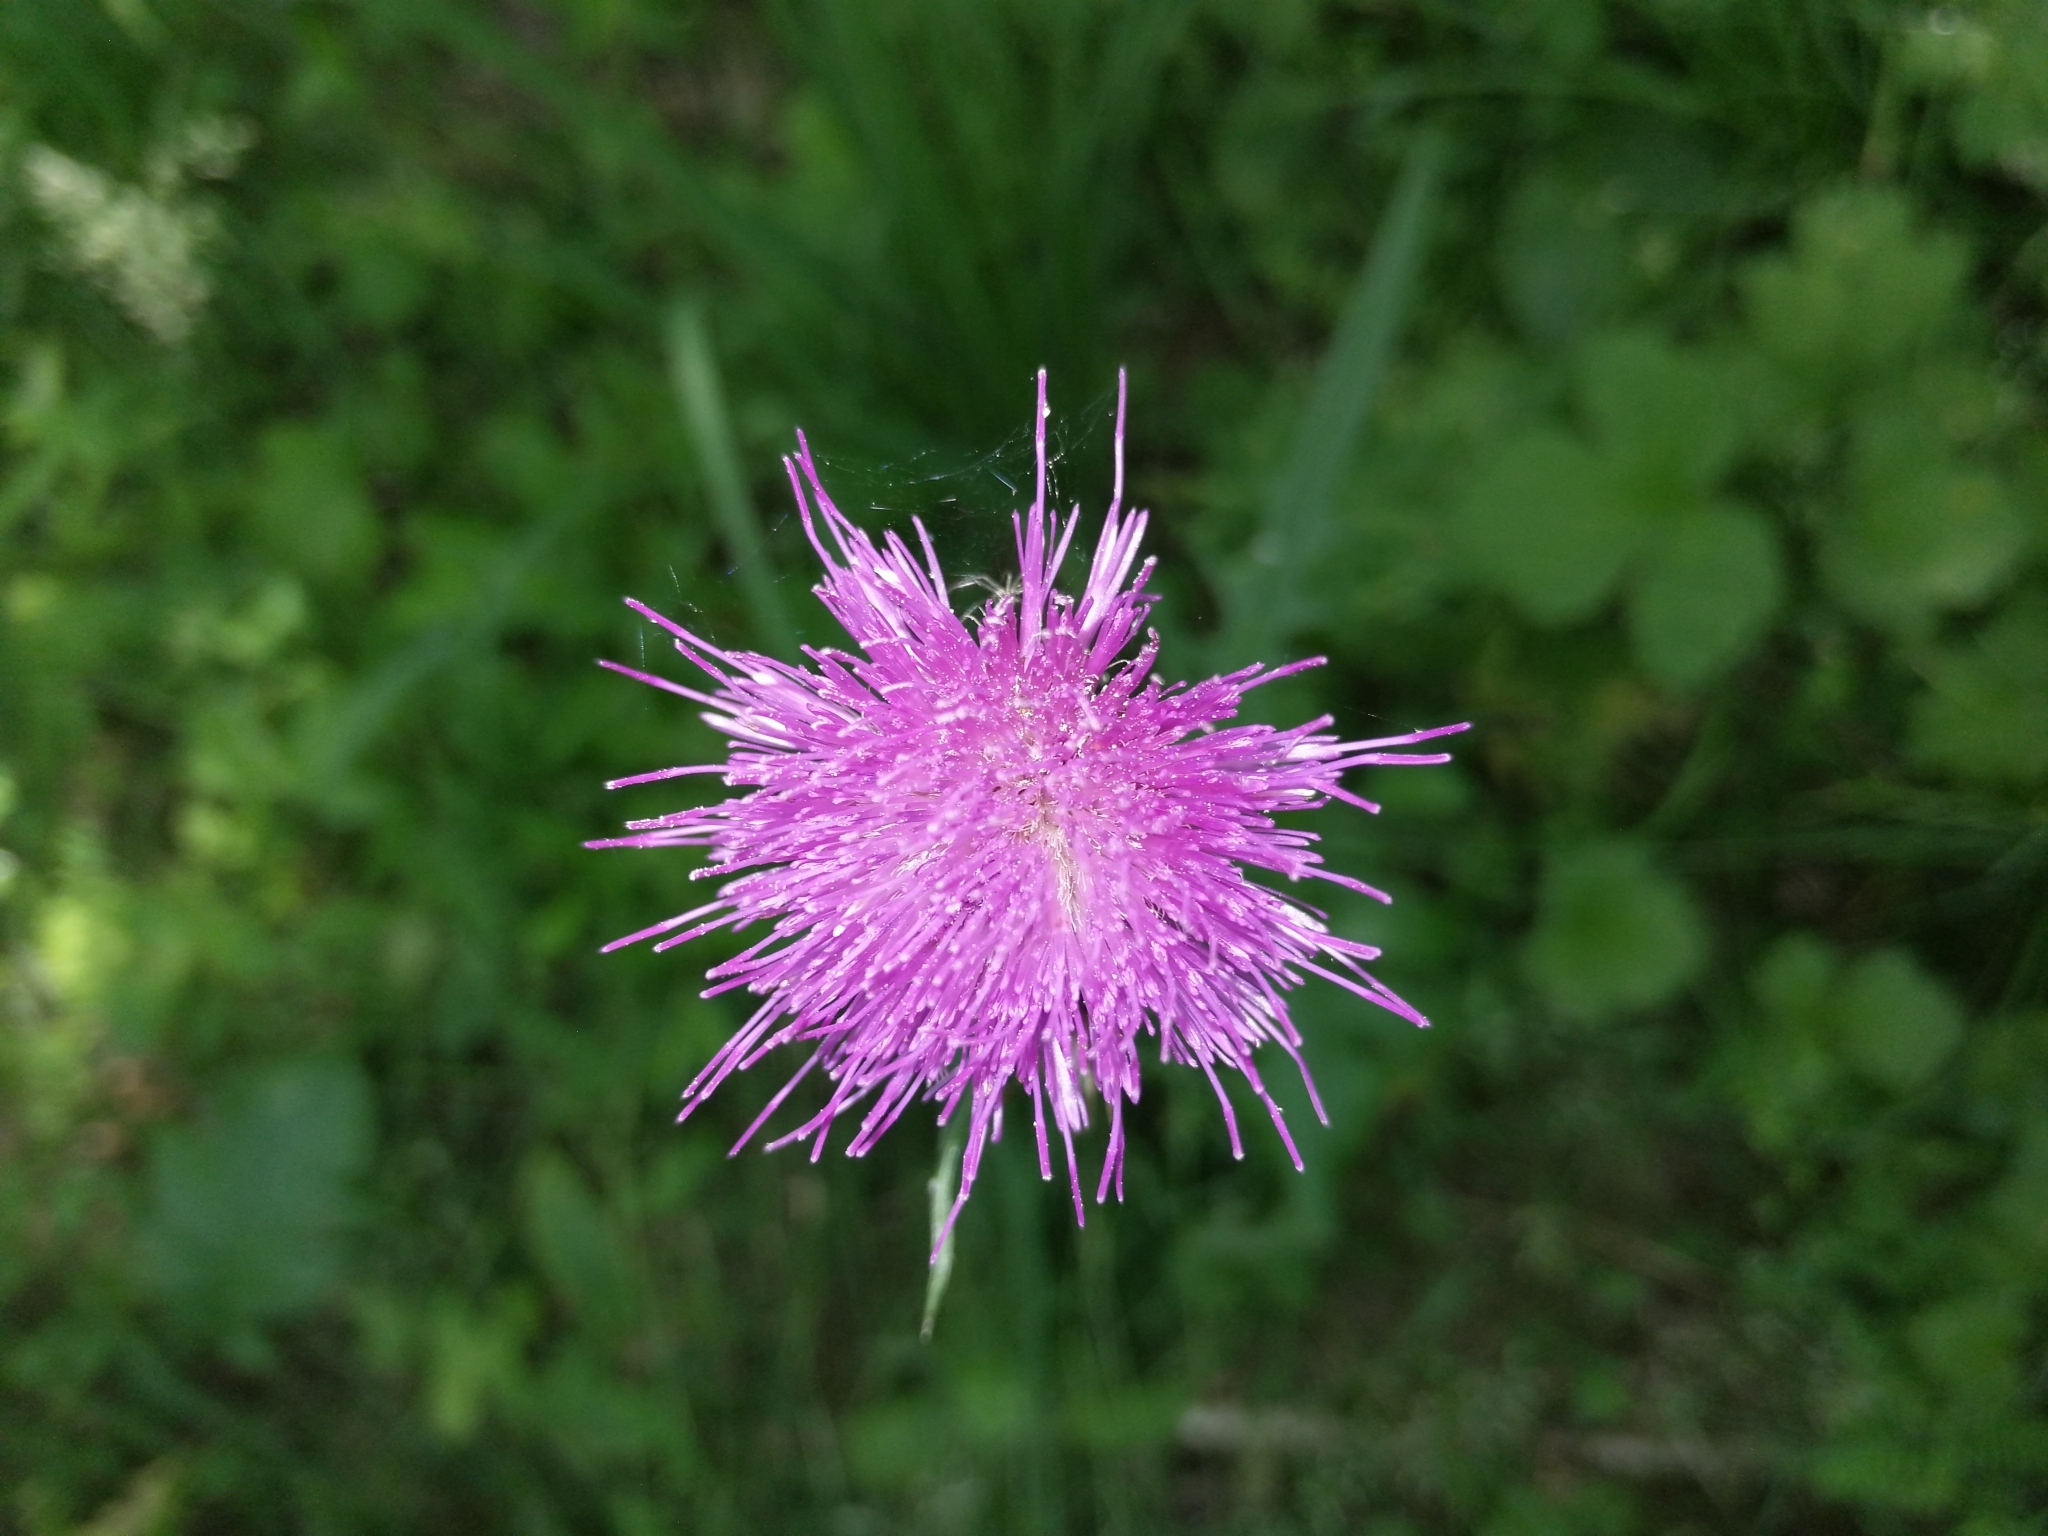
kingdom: Plantae
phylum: Tracheophyta
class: Magnoliopsida
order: Asterales
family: Asteraceae
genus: Cirsium
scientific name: Cirsium rivulare
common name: Brook thistle
